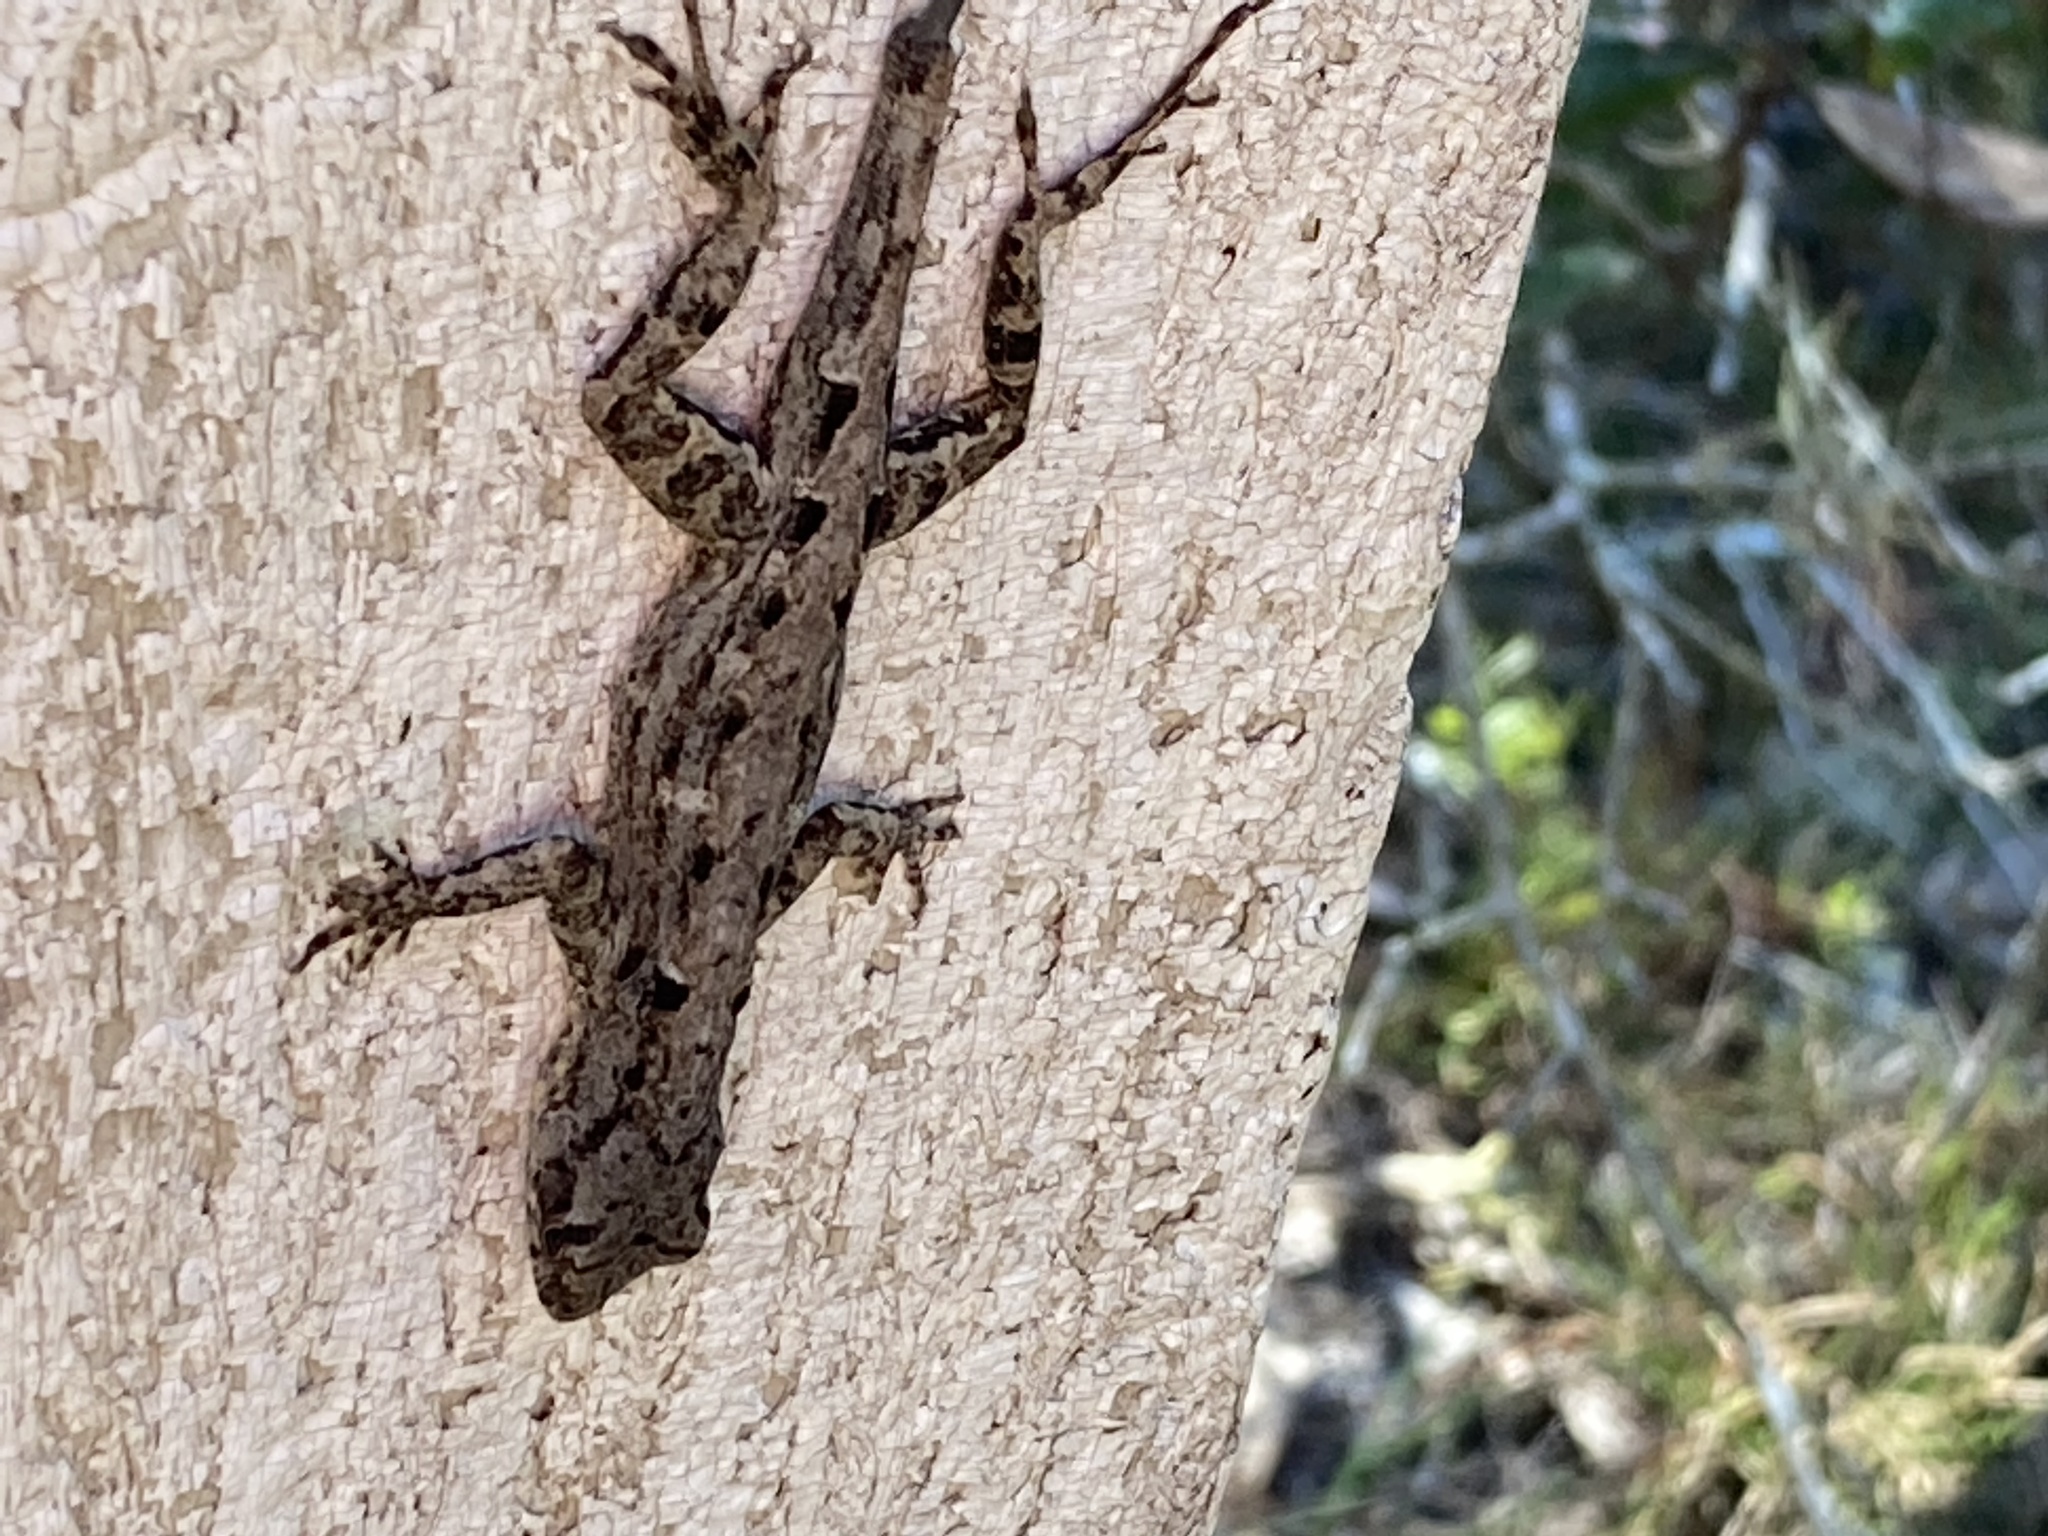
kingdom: Animalia
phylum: Chordata
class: Squamata
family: Dactyloidae
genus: Anolis
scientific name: Anolis sagrei
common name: Brown anole
